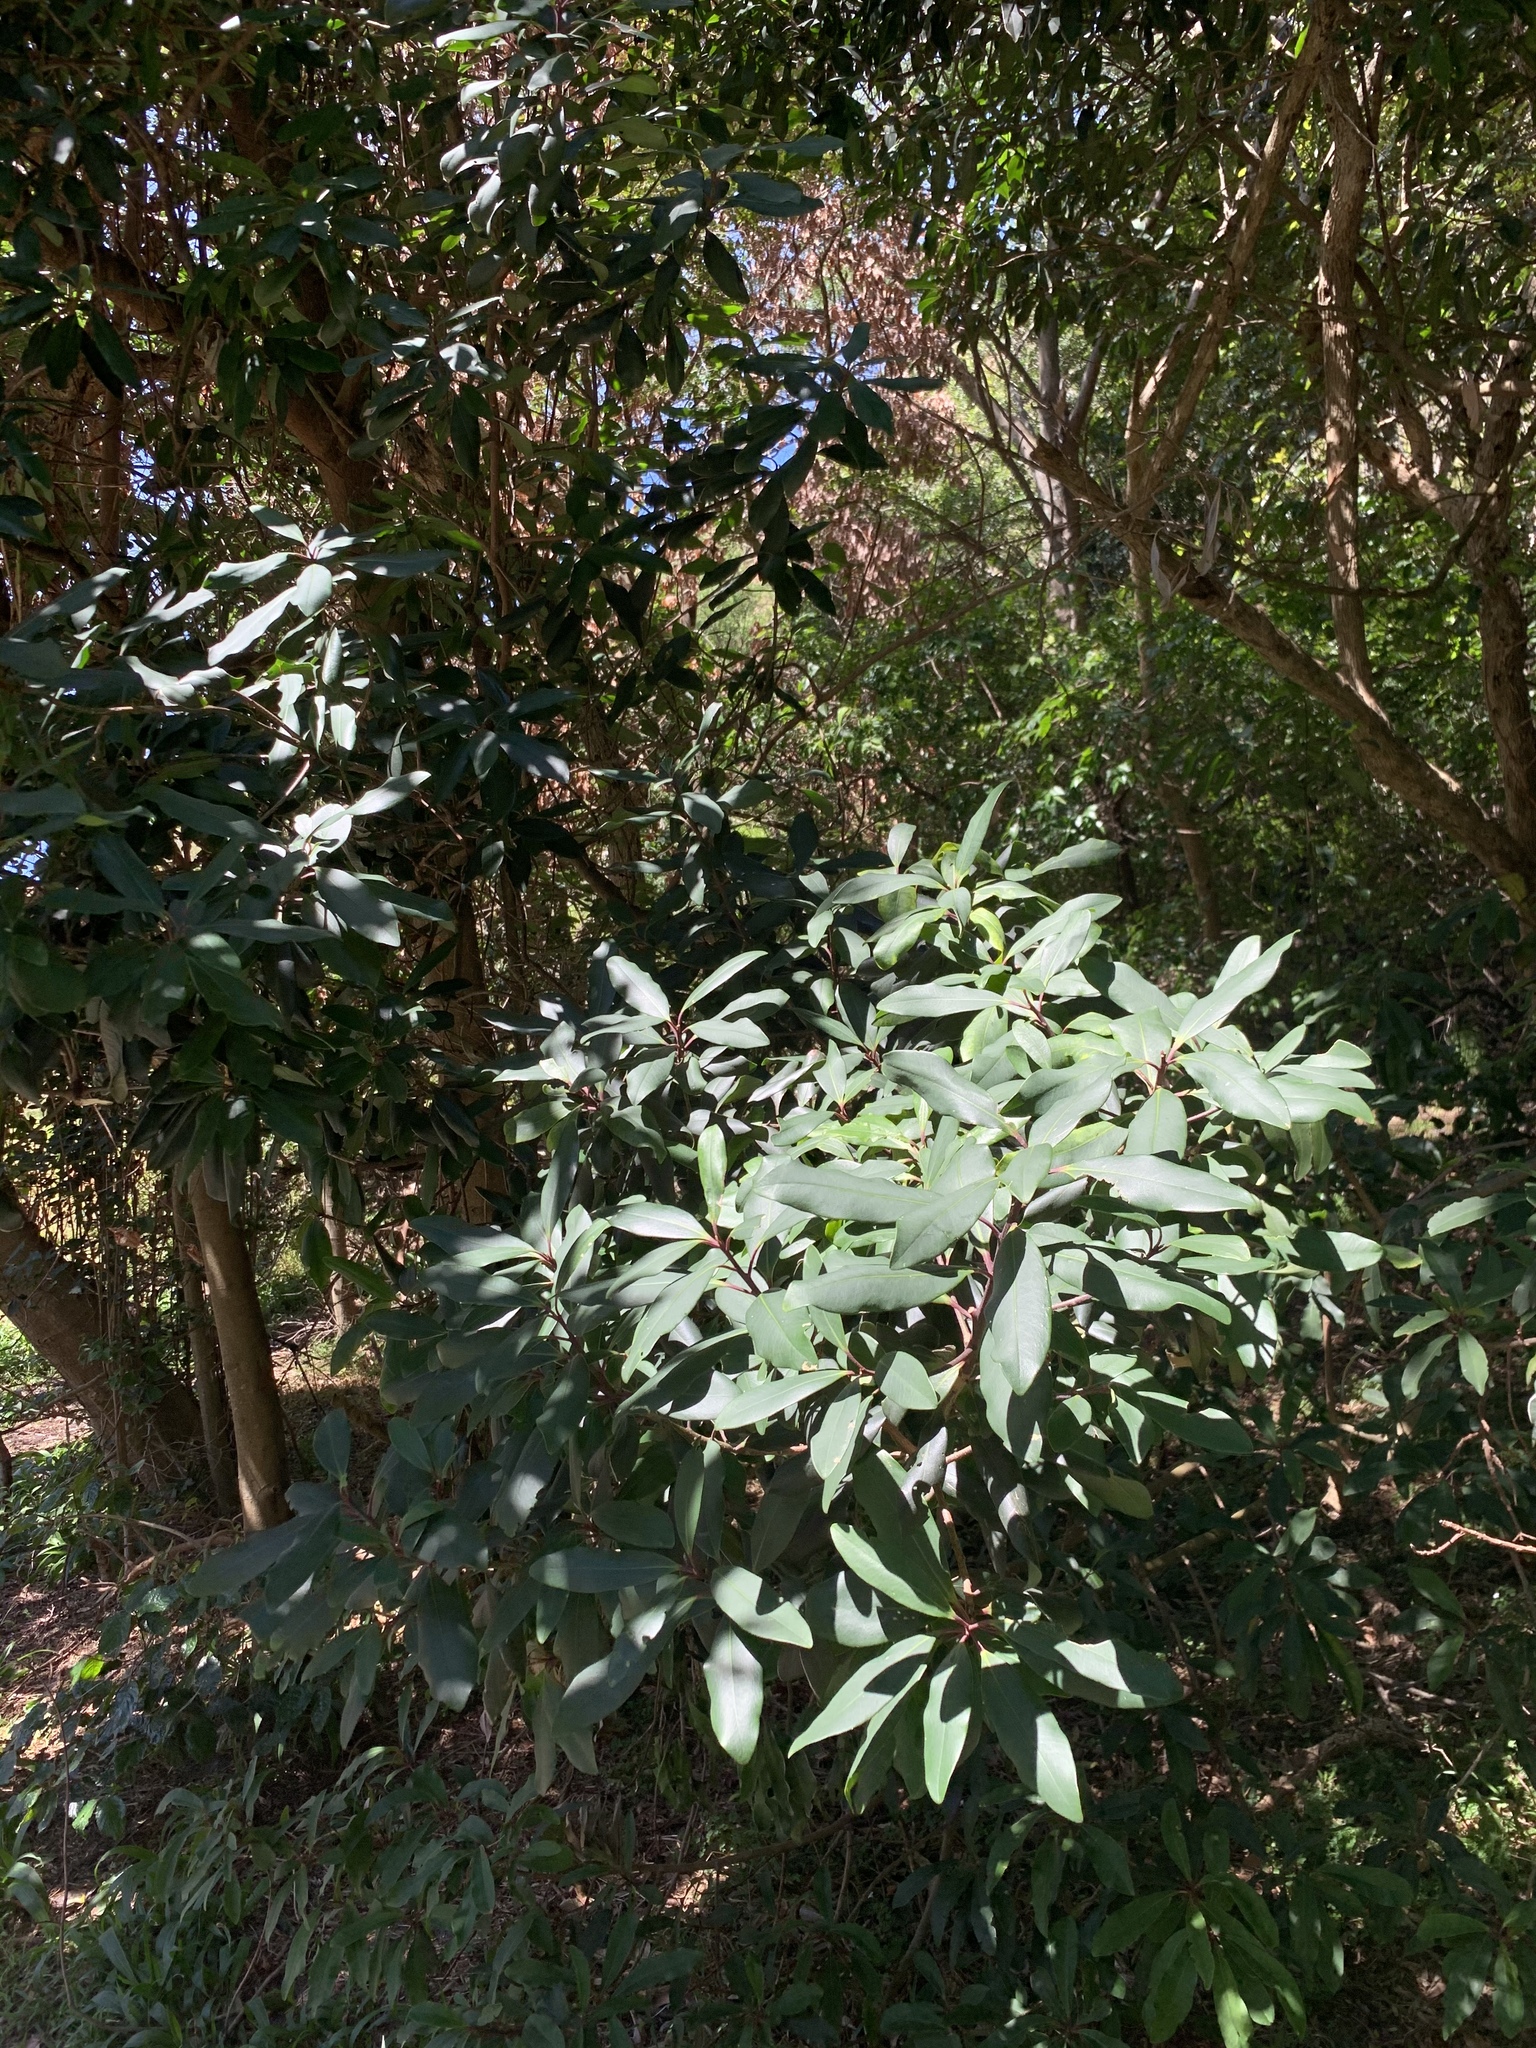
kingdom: Plantae
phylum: Tracheophyta
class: Magnoliopsida
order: Ericales
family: Primulaceae
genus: Myrsine
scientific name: Myrsine melanophloeos
